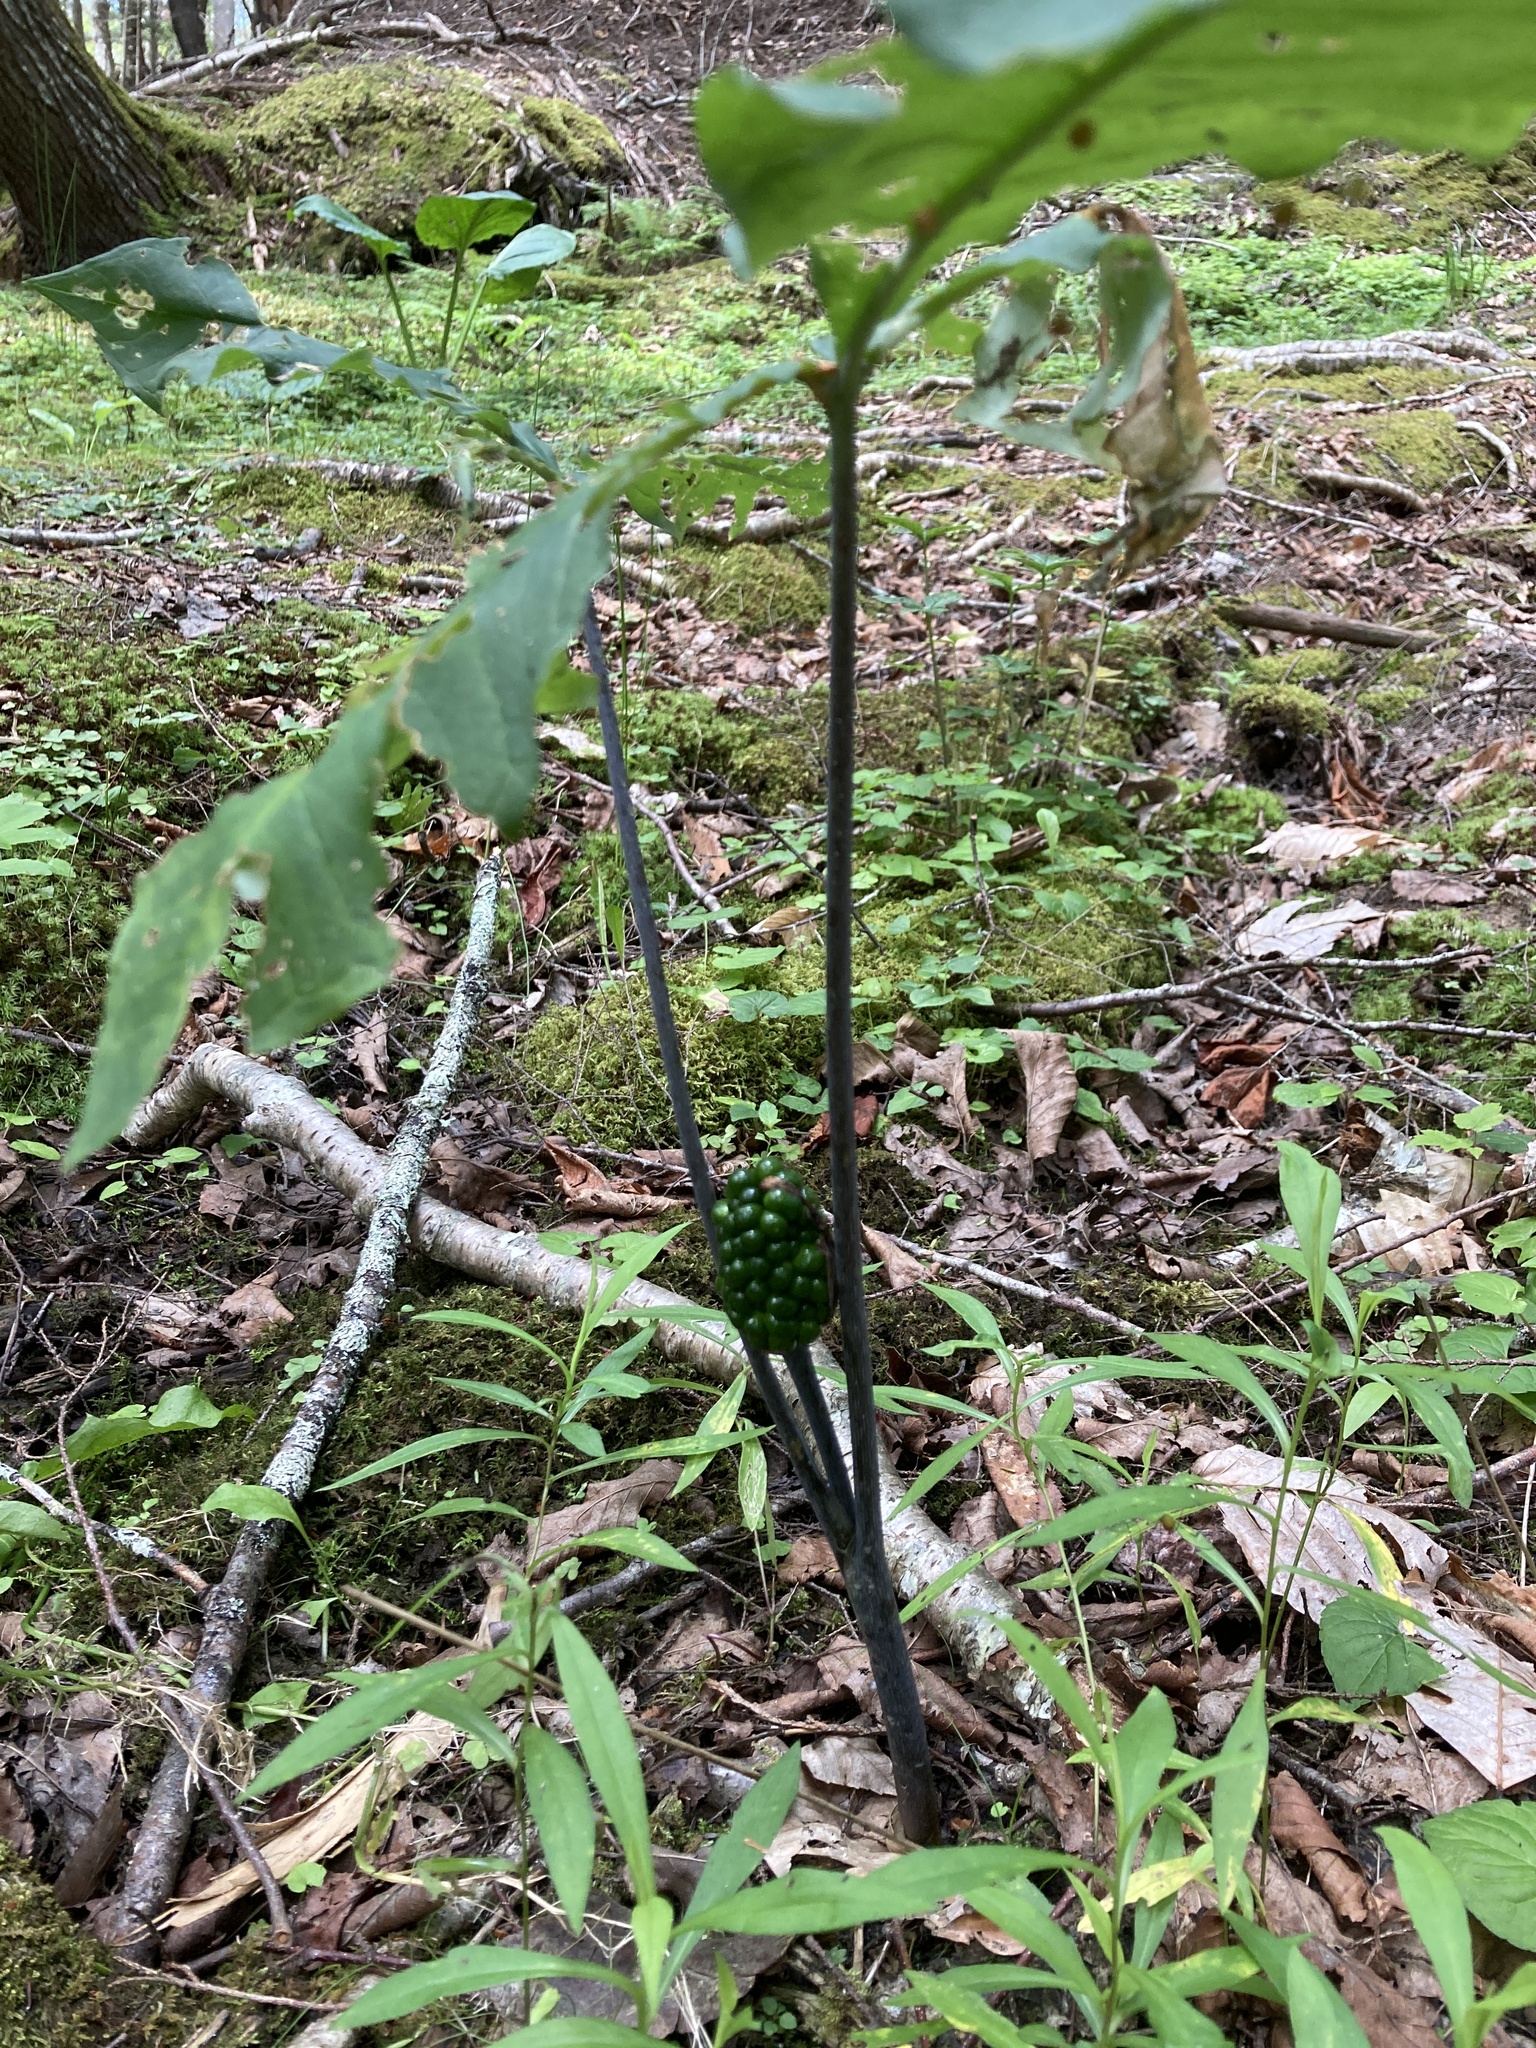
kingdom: Plantae
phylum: Tracheophyta
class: Liliopsida
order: Alismatales
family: Araceae
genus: Arisaema
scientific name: Arisaema triphyllum
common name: Jack-in-the-pulpit
